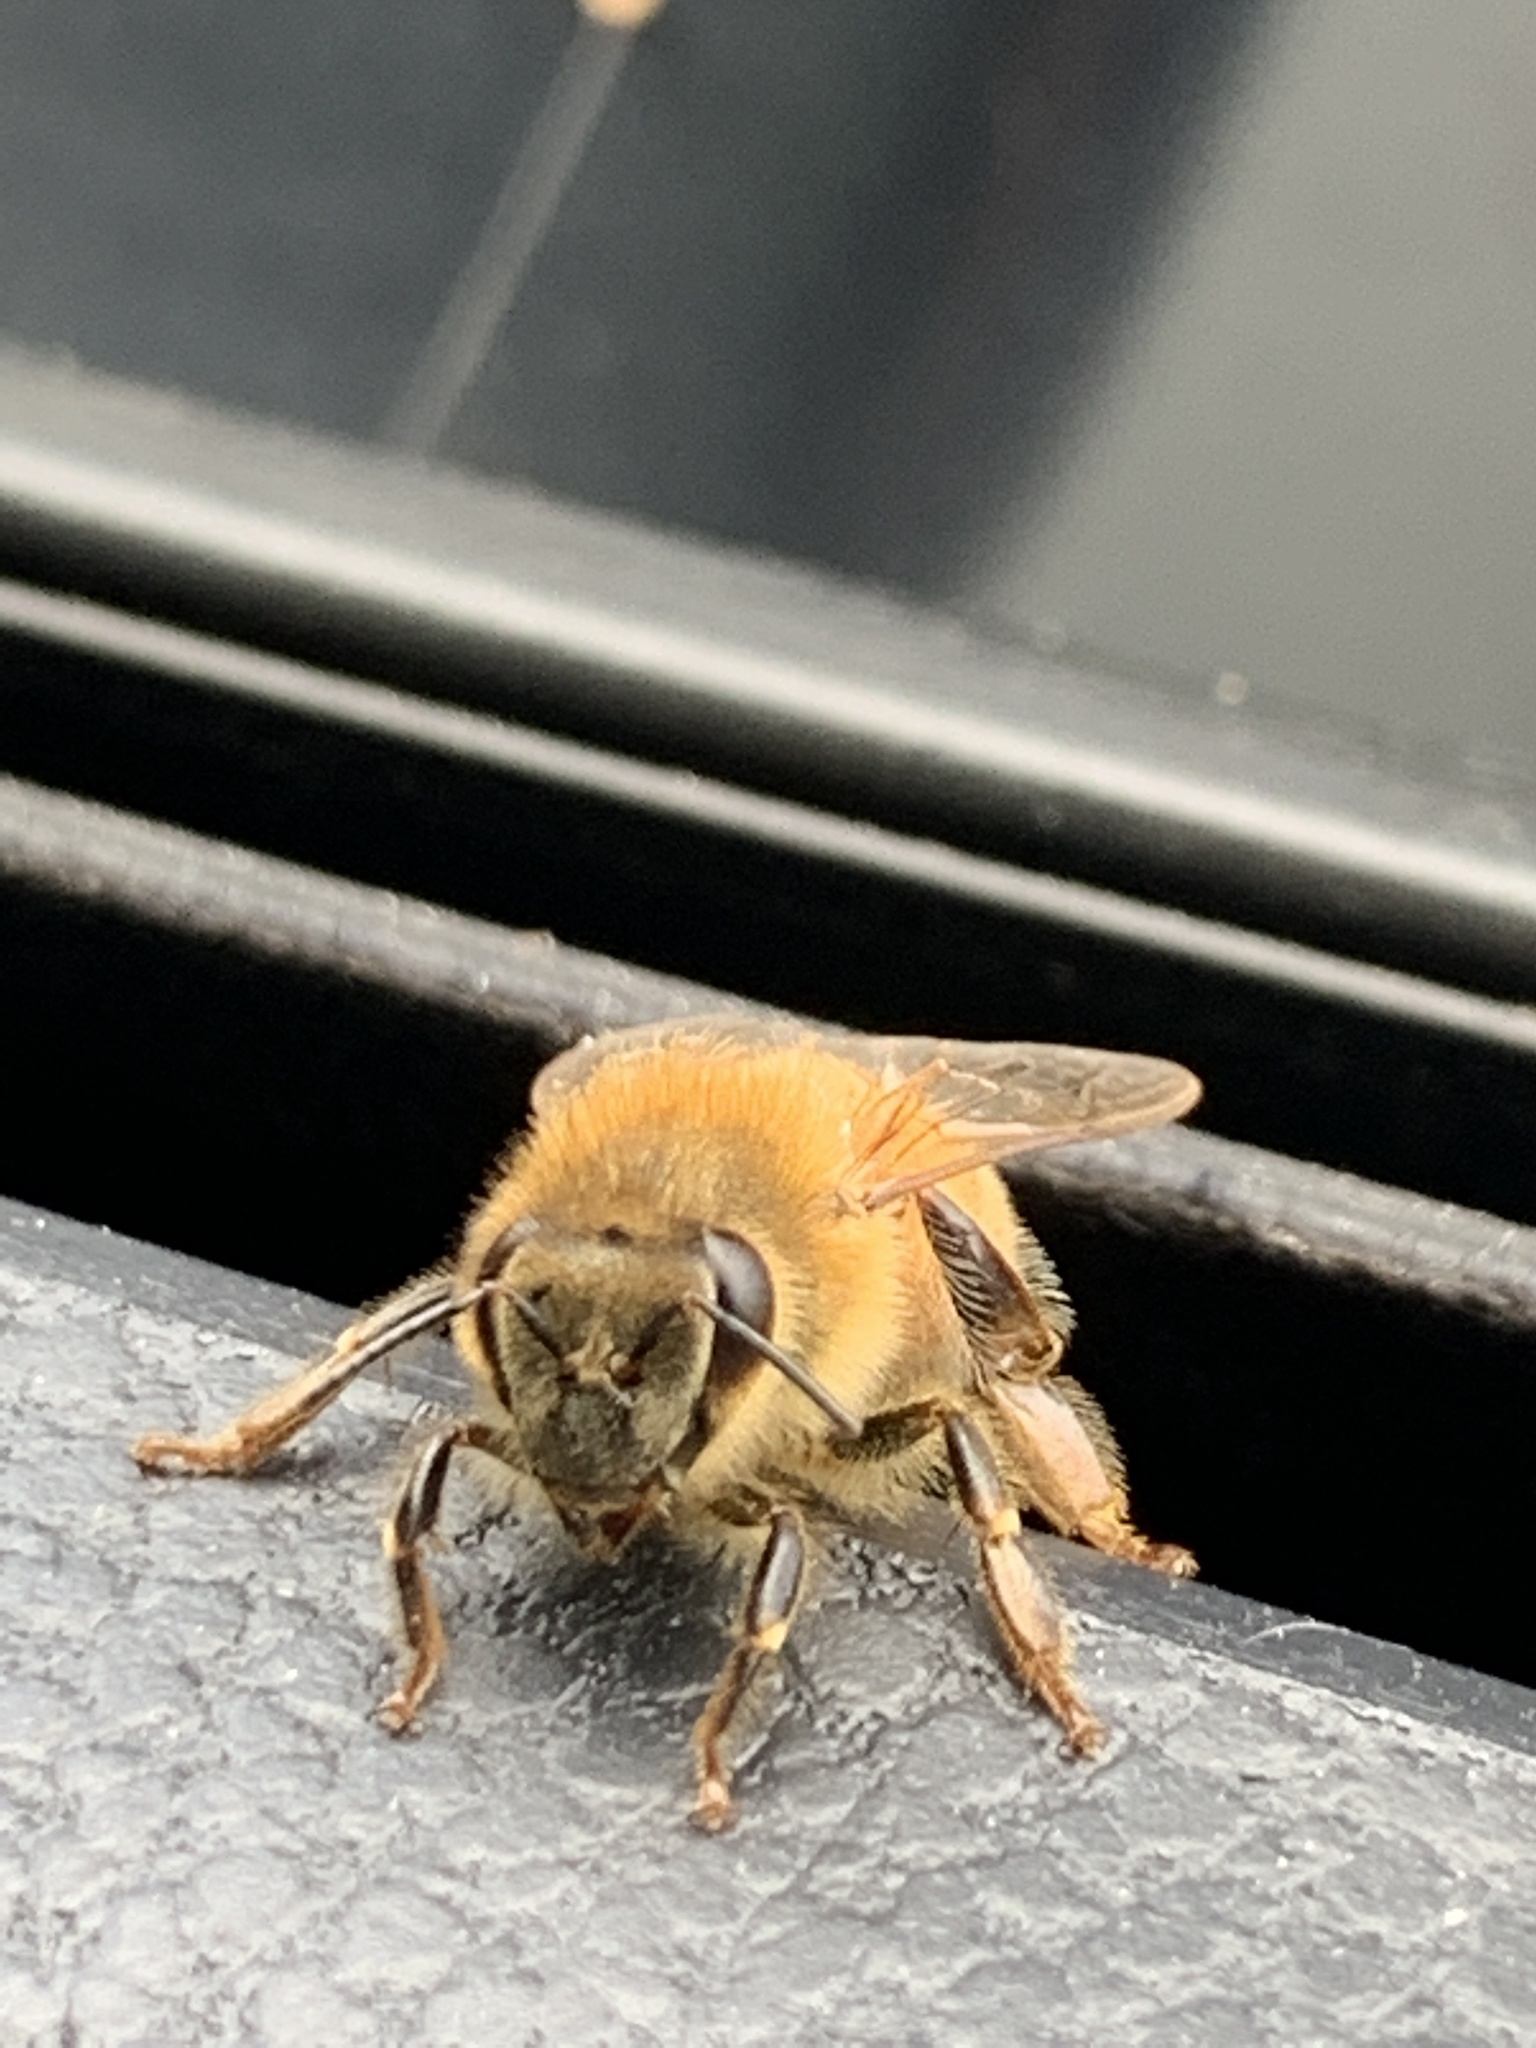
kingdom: Animalia
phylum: Arthropoda
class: Insecta
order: Hymenoptera
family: Apidae
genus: Apis
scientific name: Apis mellifera
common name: Honey bee
